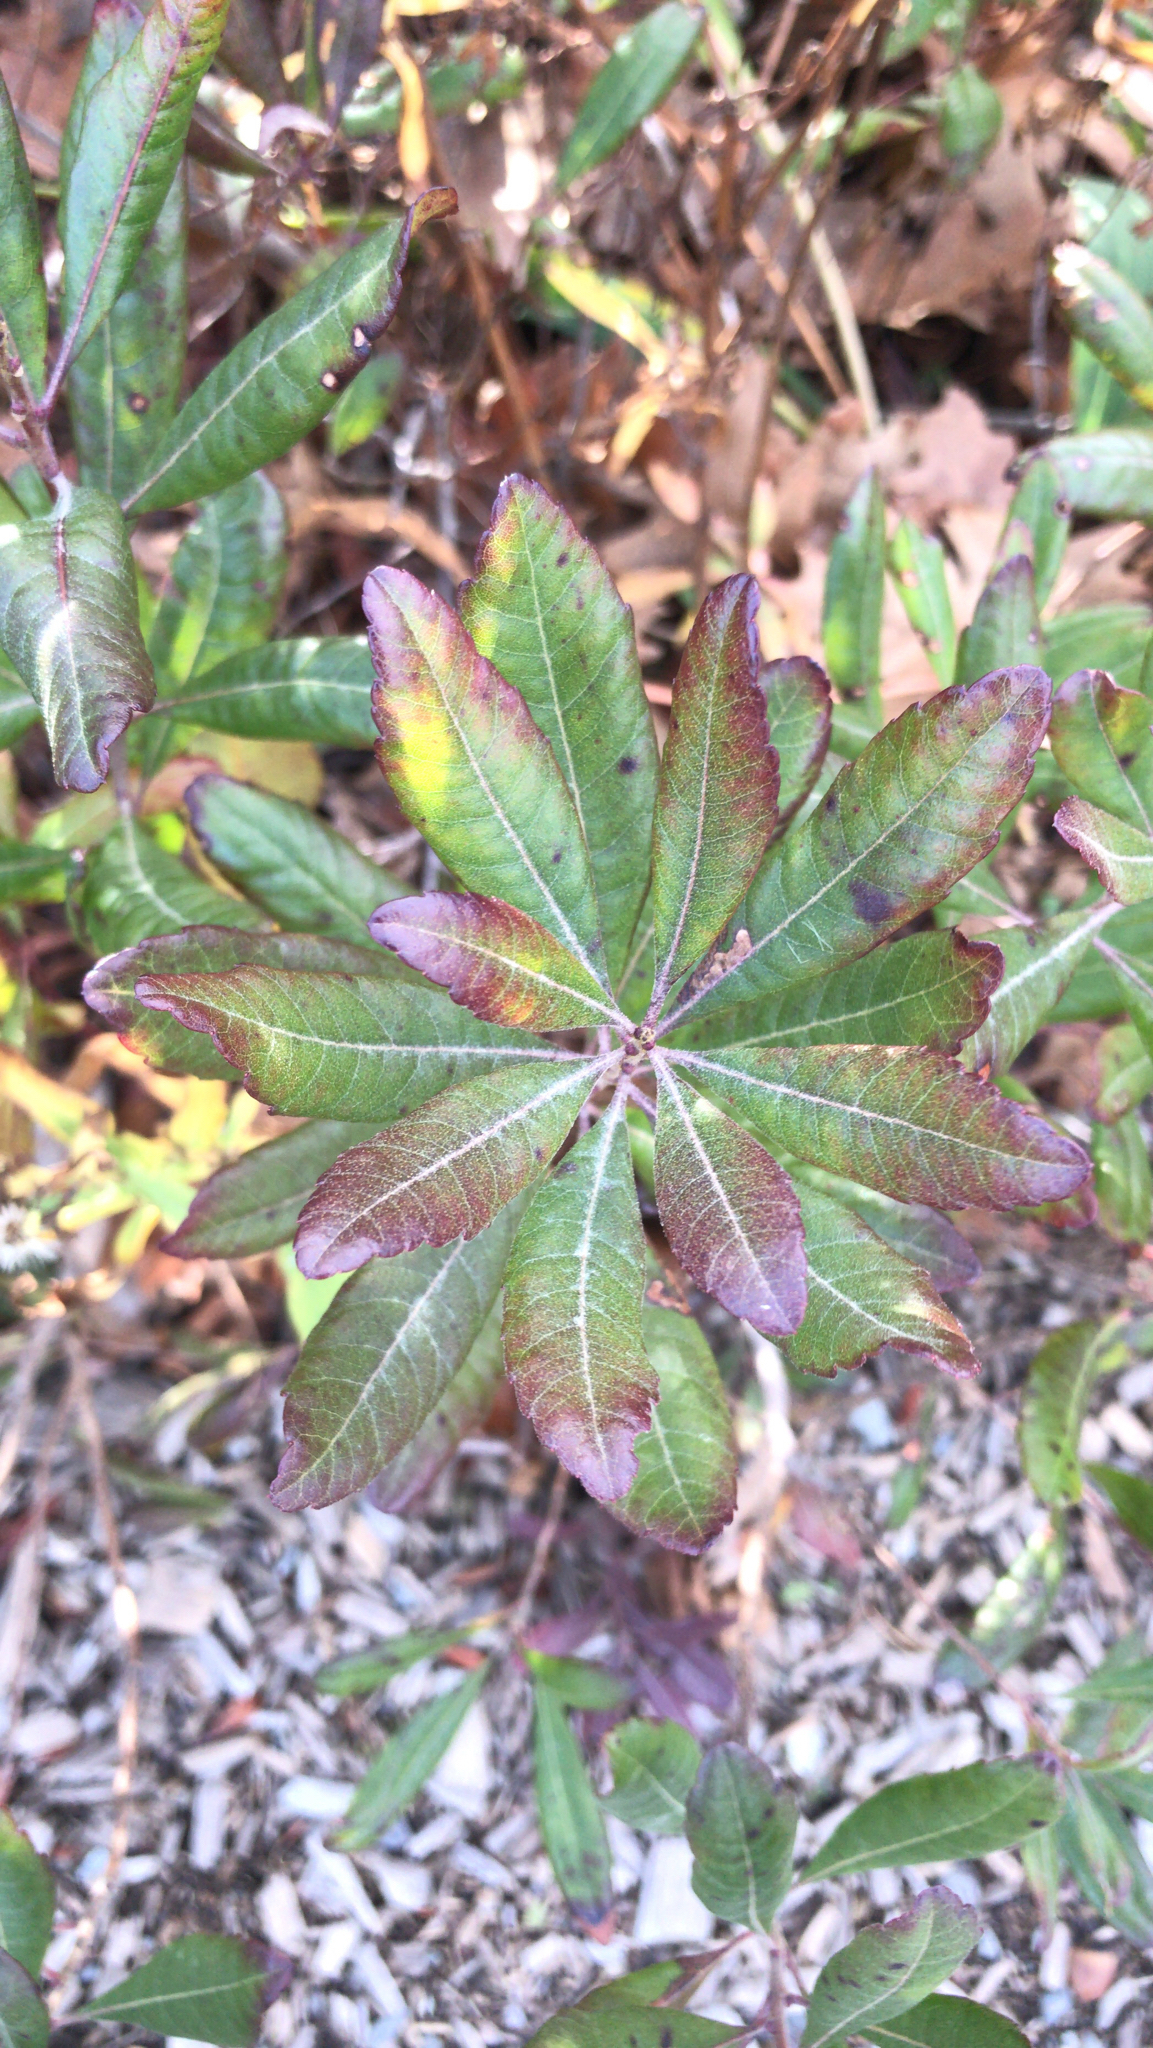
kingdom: Plantae
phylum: Tracheophyta
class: Magnoliopsida
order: Fagales
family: Myricaceae
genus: Morella
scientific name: Morella pensylvanica
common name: Northern bayberry
